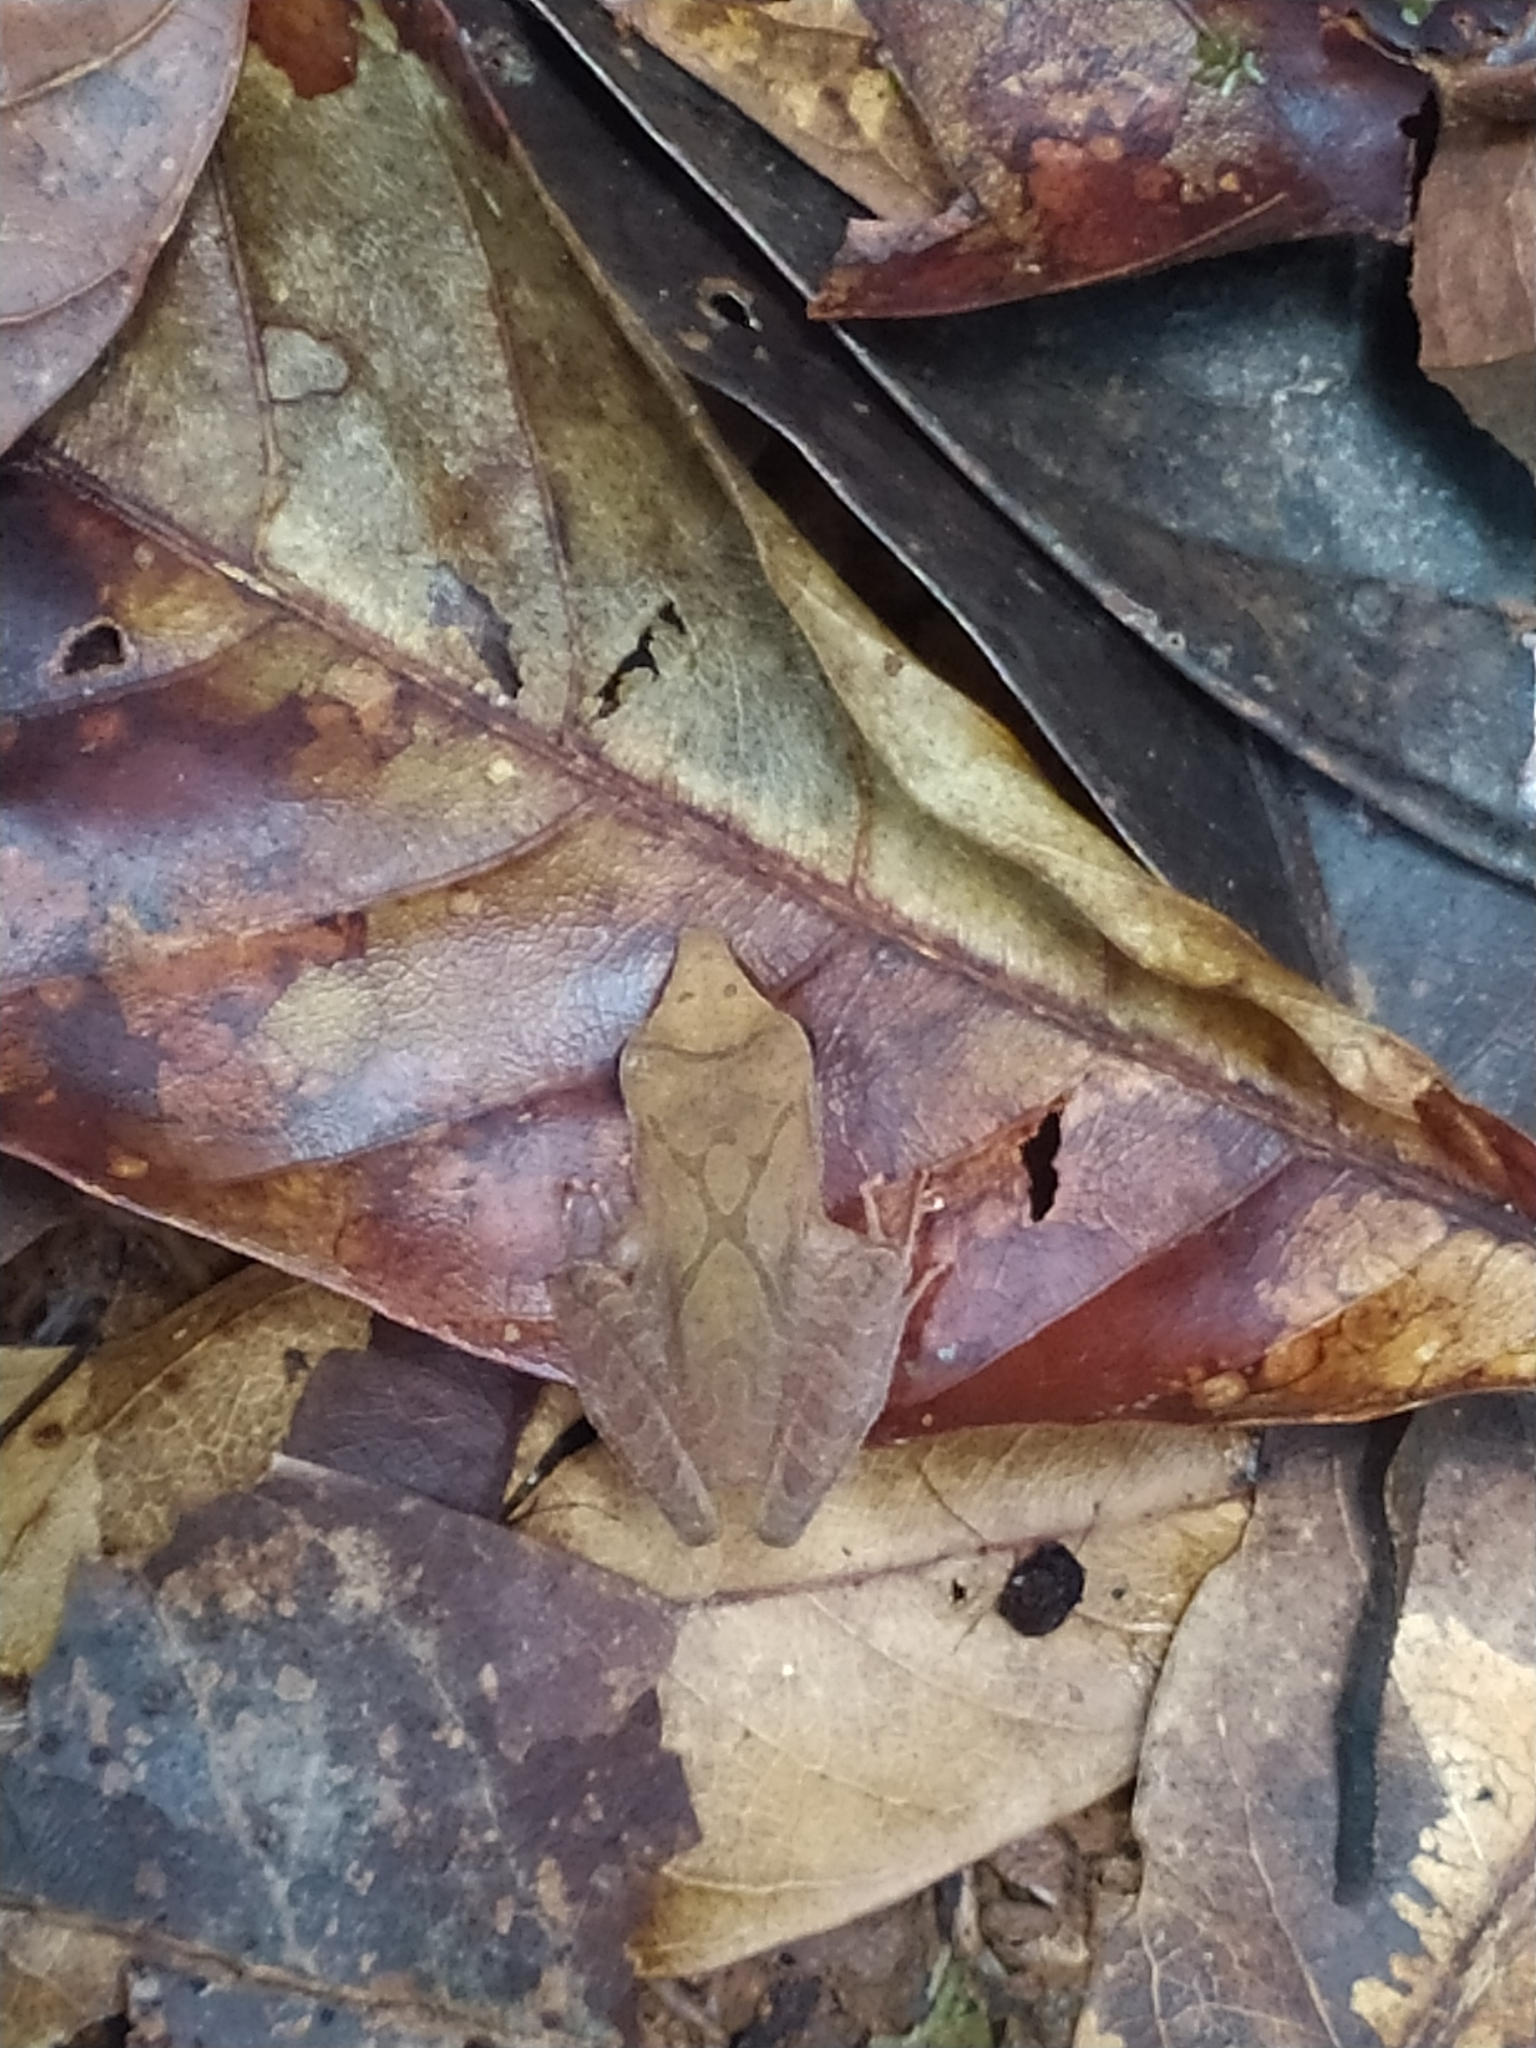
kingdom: Animalia
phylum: Chordata
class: Amphibia
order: Anura
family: Craugastoridae
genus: Pristimantis
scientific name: Pristimantis chiastonotus
